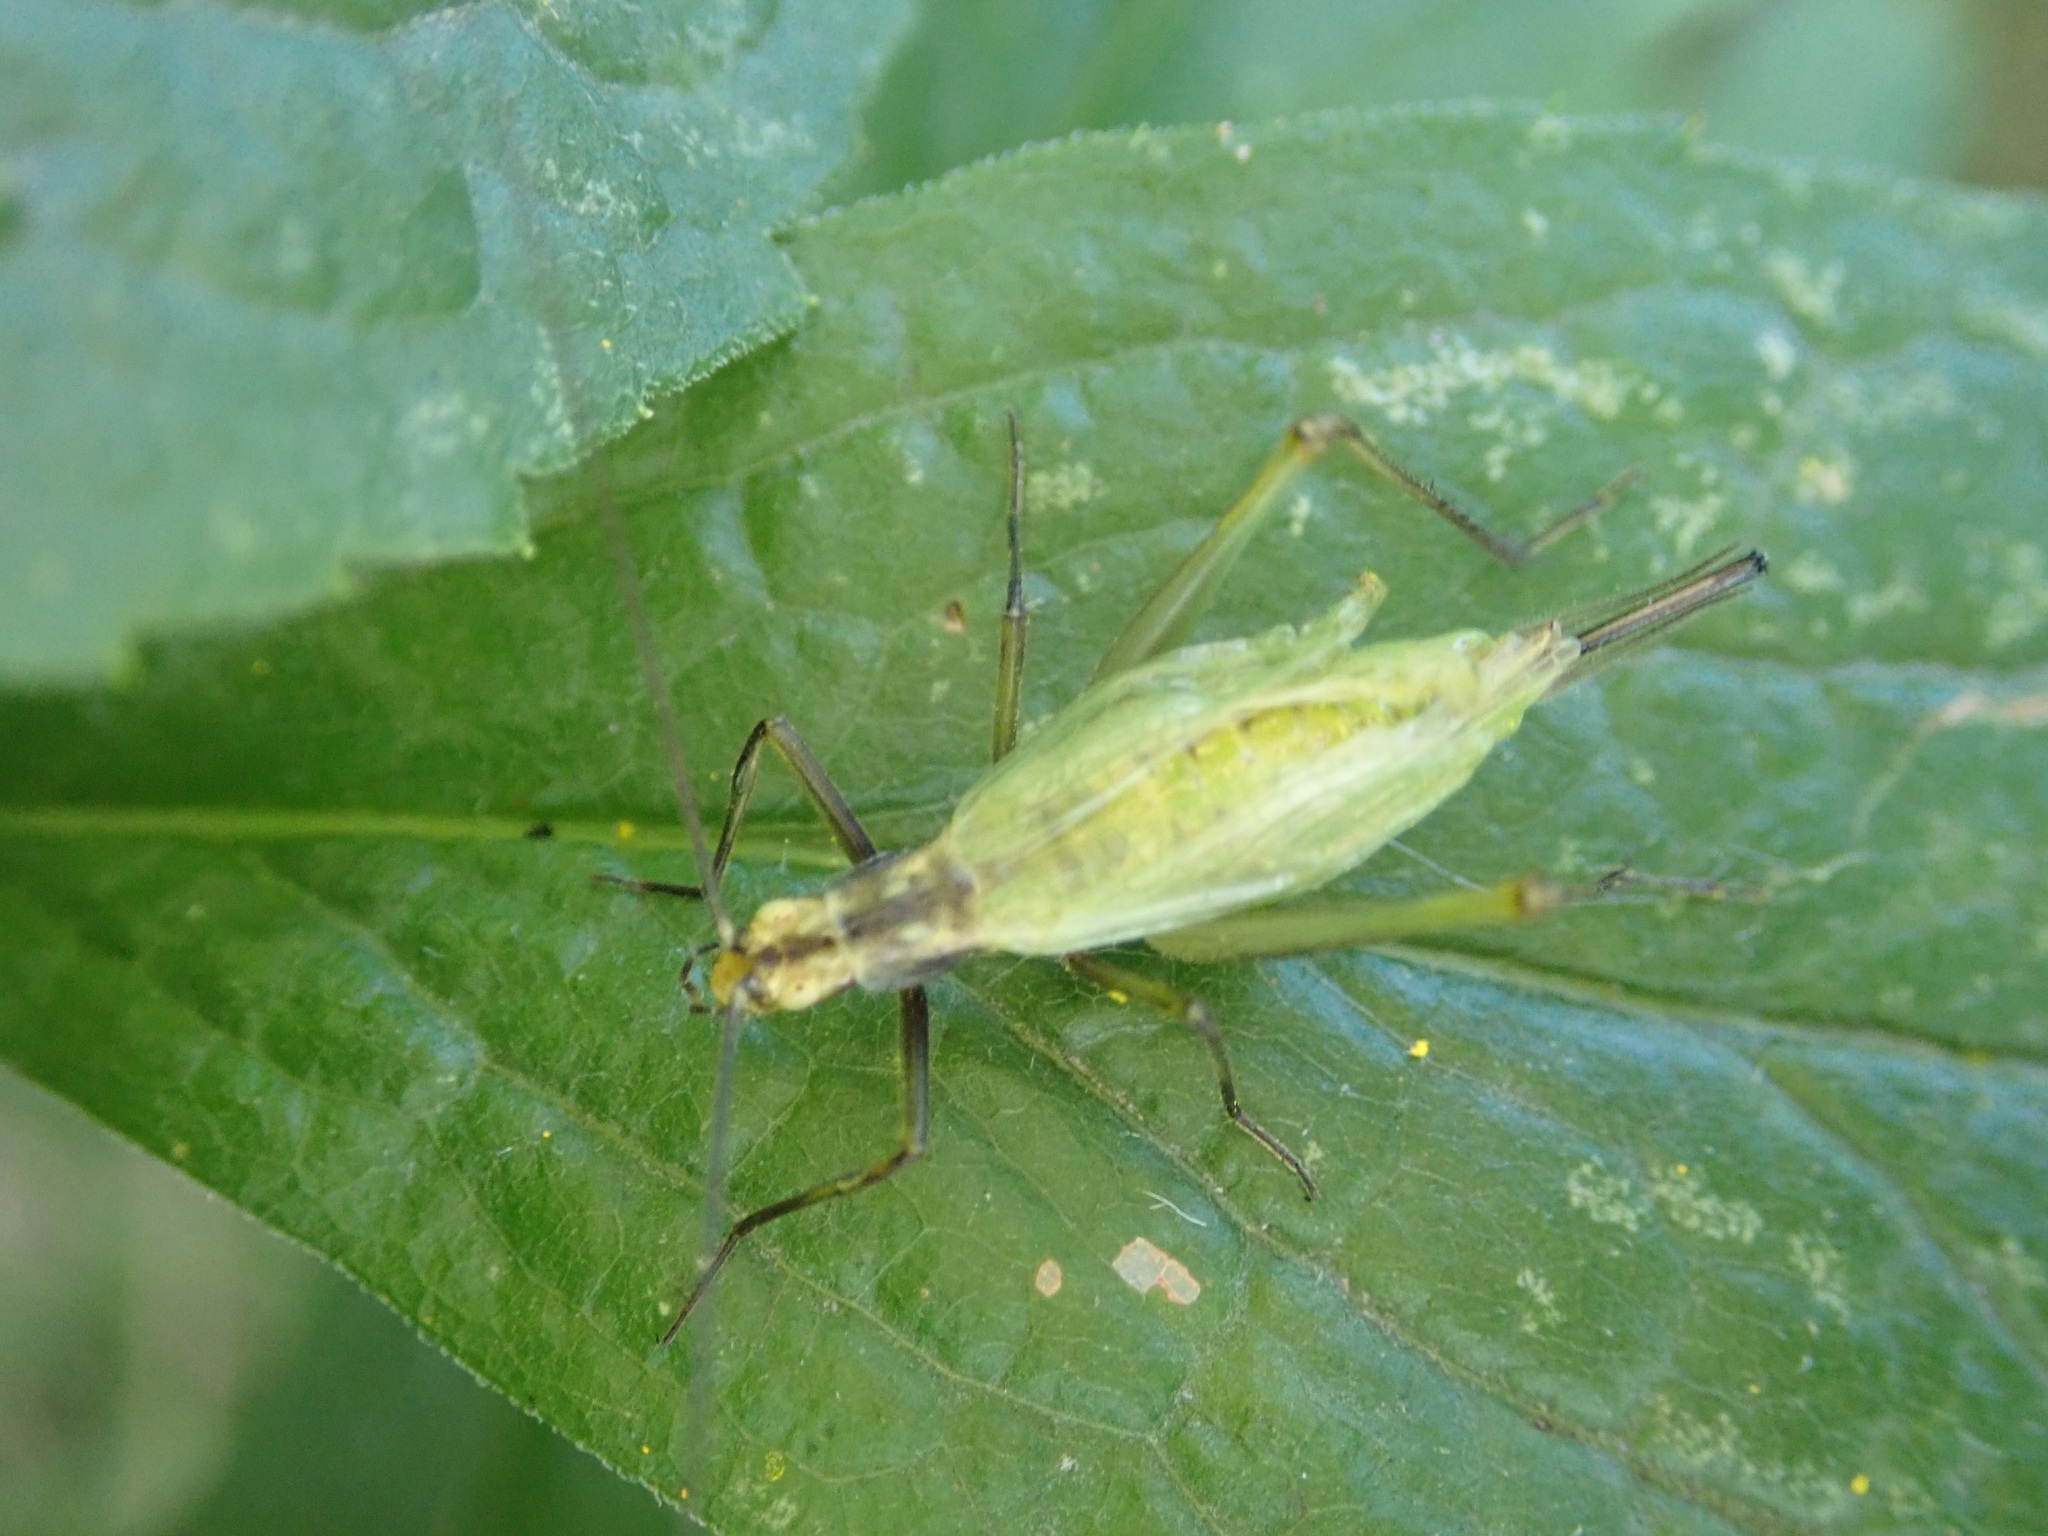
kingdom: Animalia
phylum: Arthropoda
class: Insecta
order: Orthoptera
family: Gryllidae
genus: Oecanthus
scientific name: Oecanthus nigricornis
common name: Black-horned tree cricket
